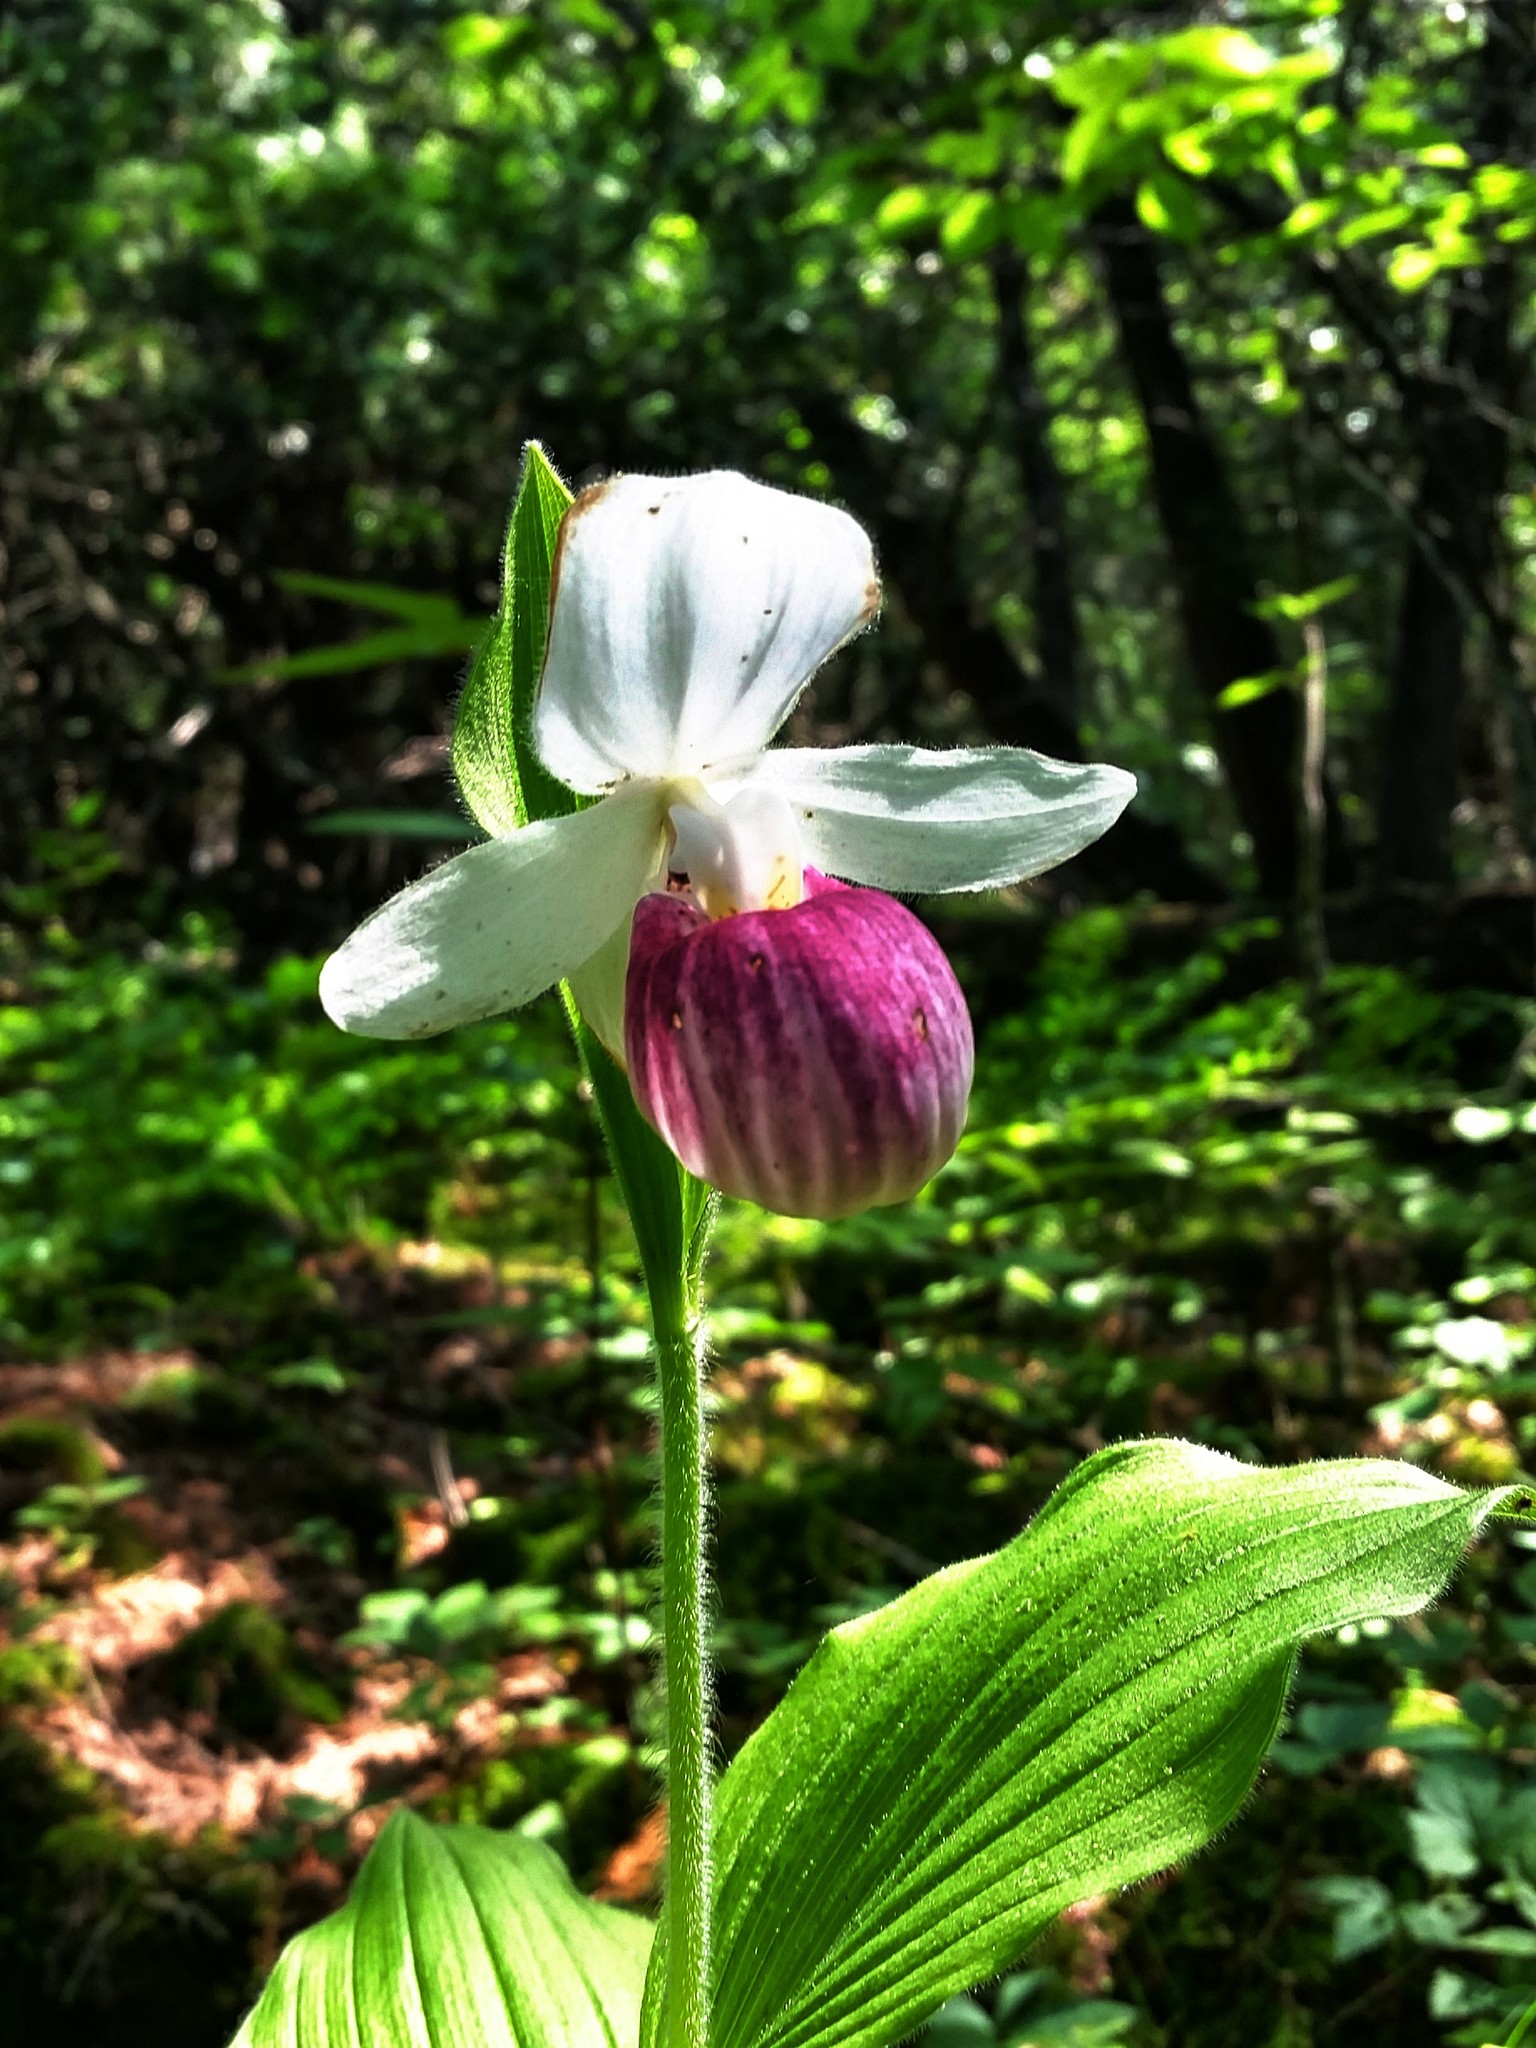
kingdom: Plantae
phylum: Tracheophyta
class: Liliopsida
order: Asparagales
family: Orchidaceae
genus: Cypripedium
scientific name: Cypripedium reginae
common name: Queen lady's-slipper
